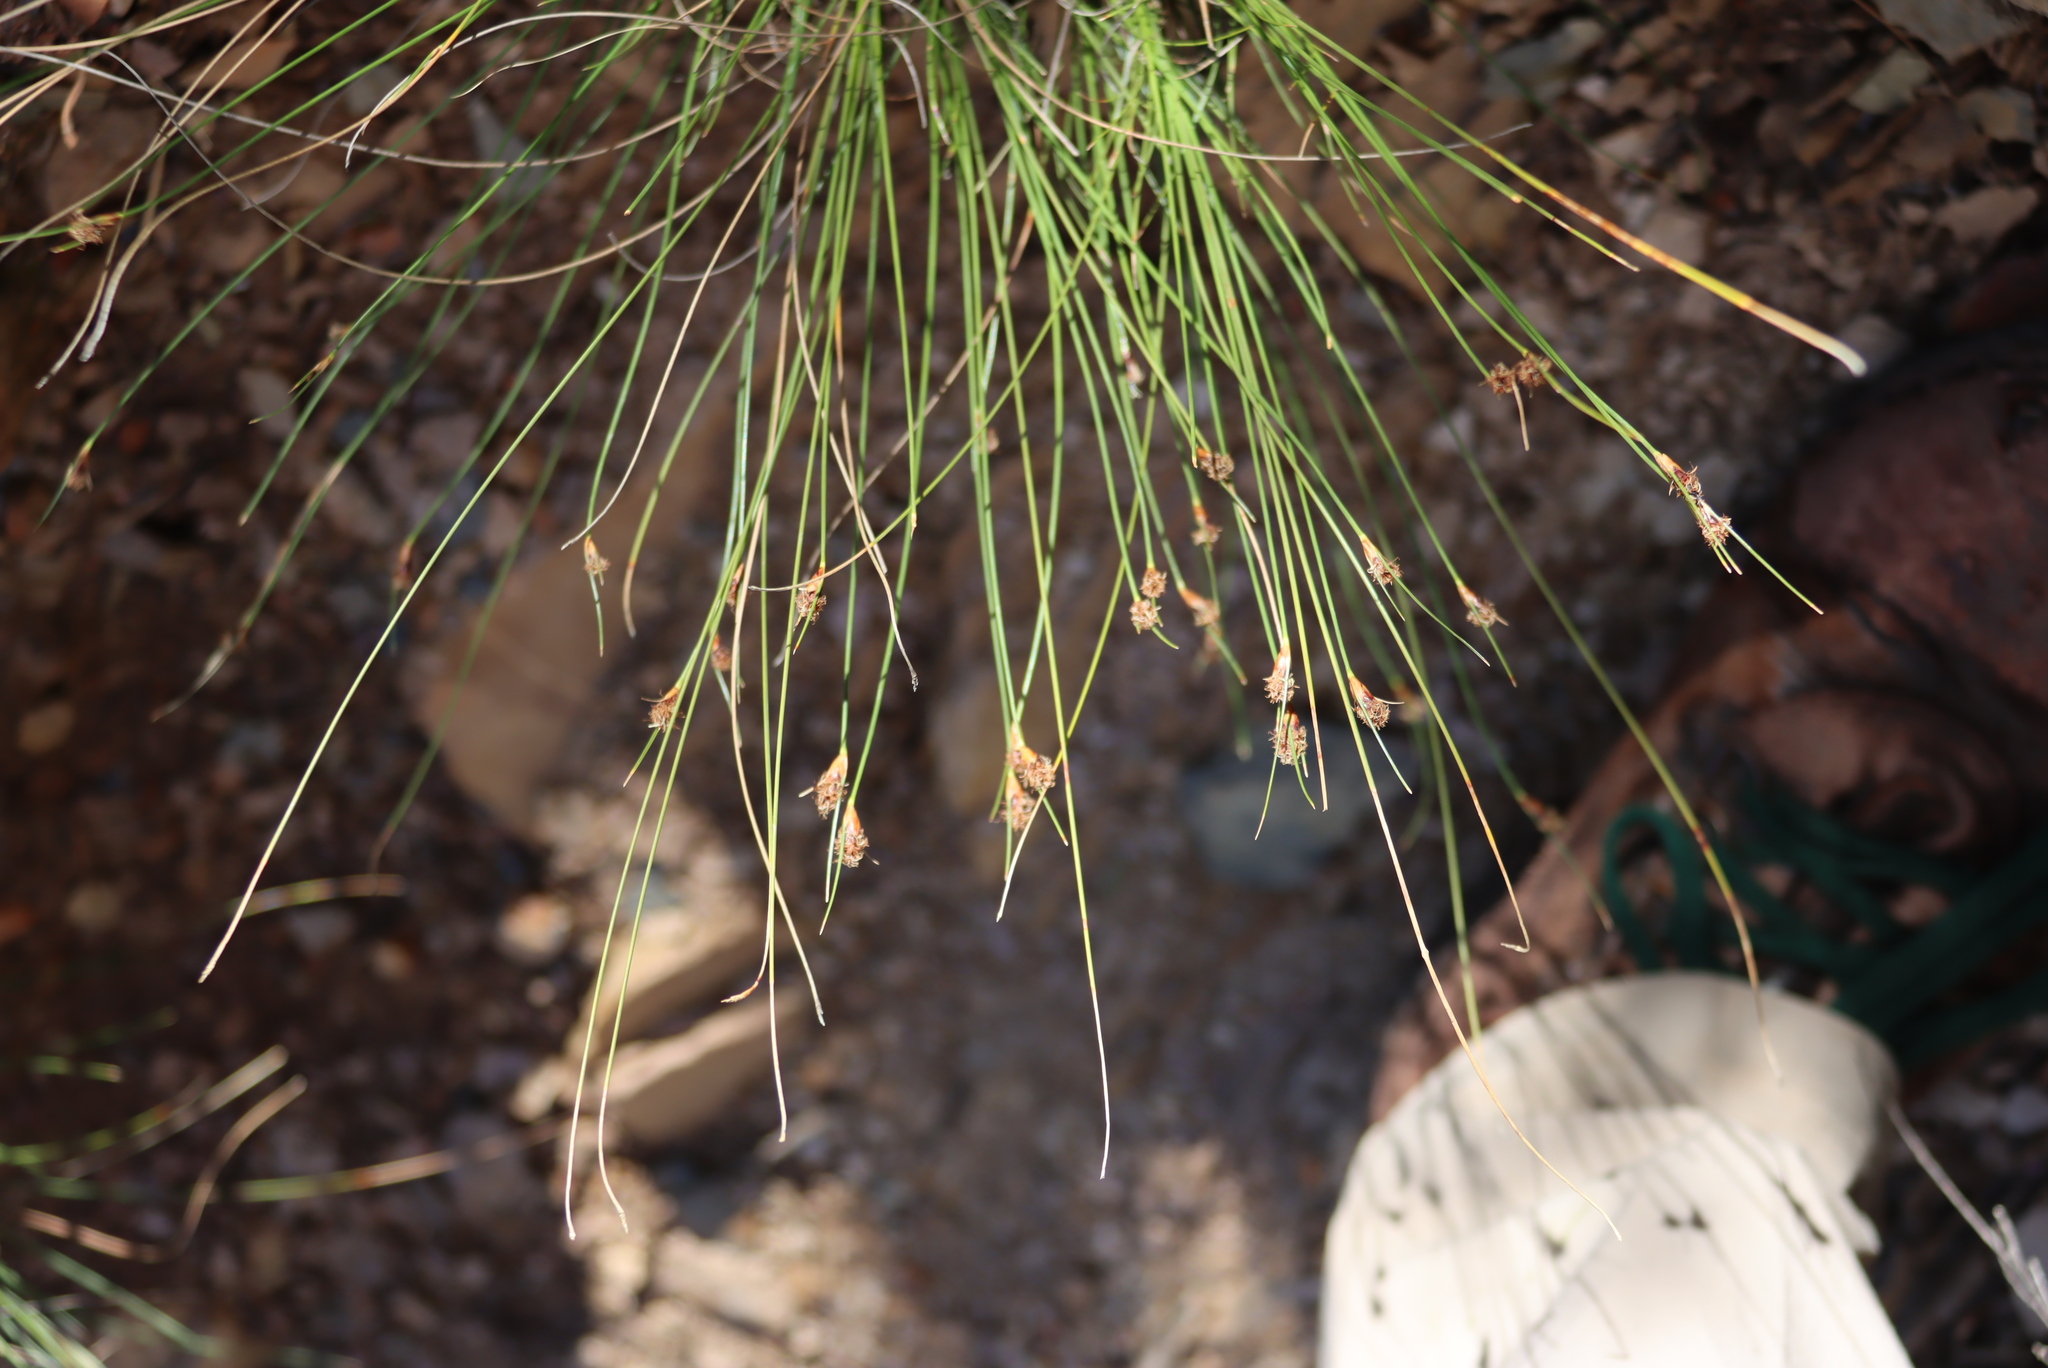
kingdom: Plantae
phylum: Tracheophyta
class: Liliopsida
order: Poales
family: Cyperaceae
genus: Ficinia
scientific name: Ficinia nigrescens
